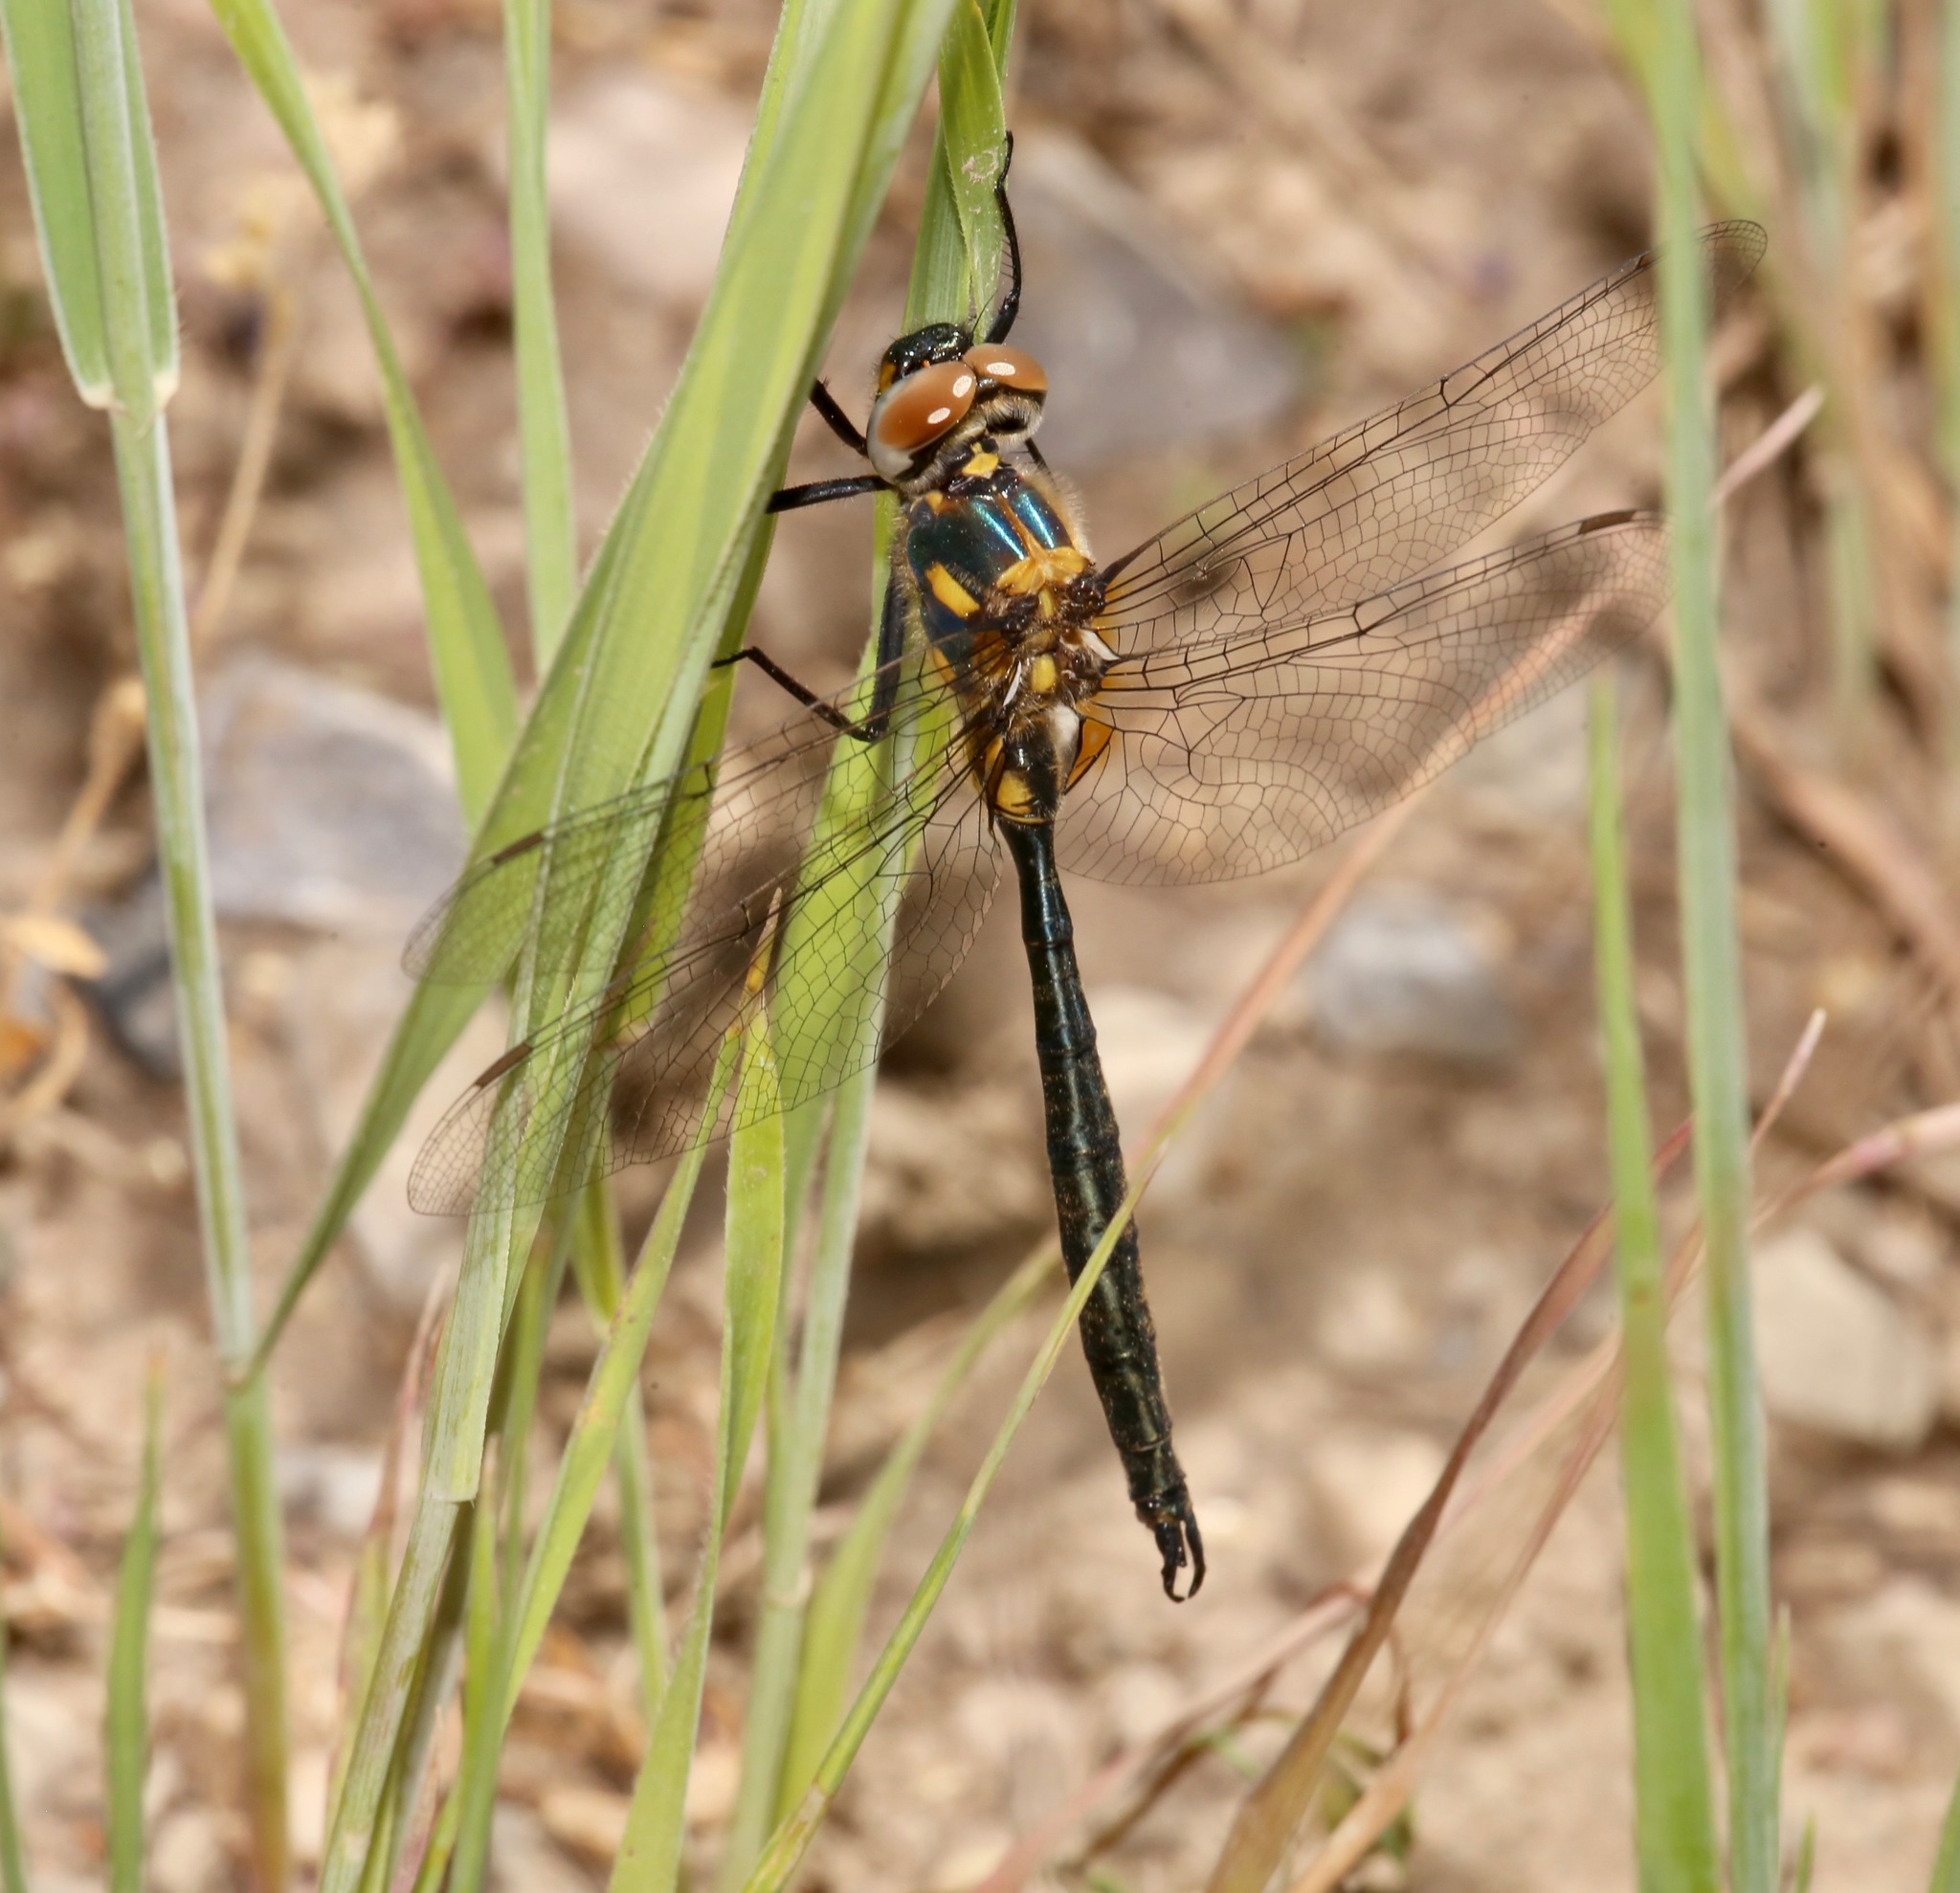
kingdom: Animalia
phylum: Arthropoda
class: Insecta
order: Odonata
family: Corduliidae
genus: Somatochlora
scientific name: Somatochlora semicircularis
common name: Mountain emerald
